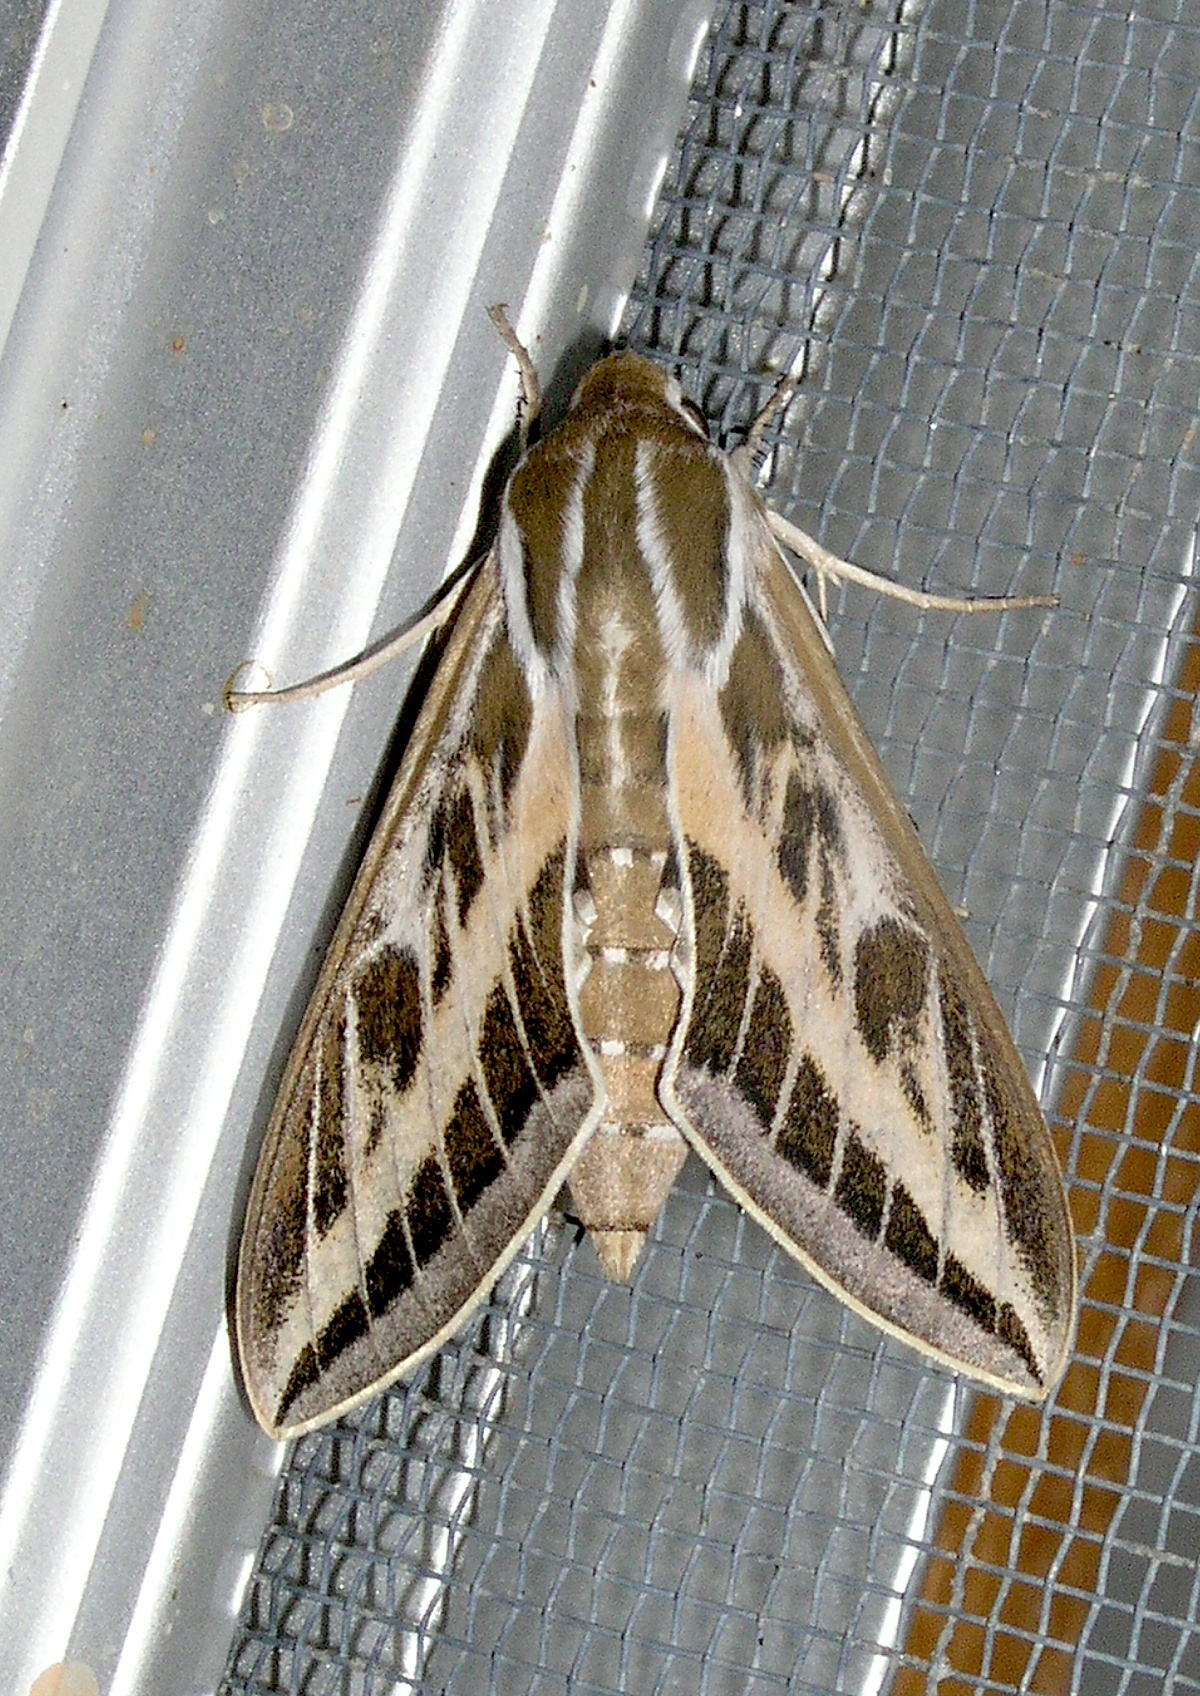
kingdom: Animalia
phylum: Arthropoda
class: Insecta
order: Lepidoptera
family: Sphingidae
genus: Hyles
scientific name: Hyles livornicoides
